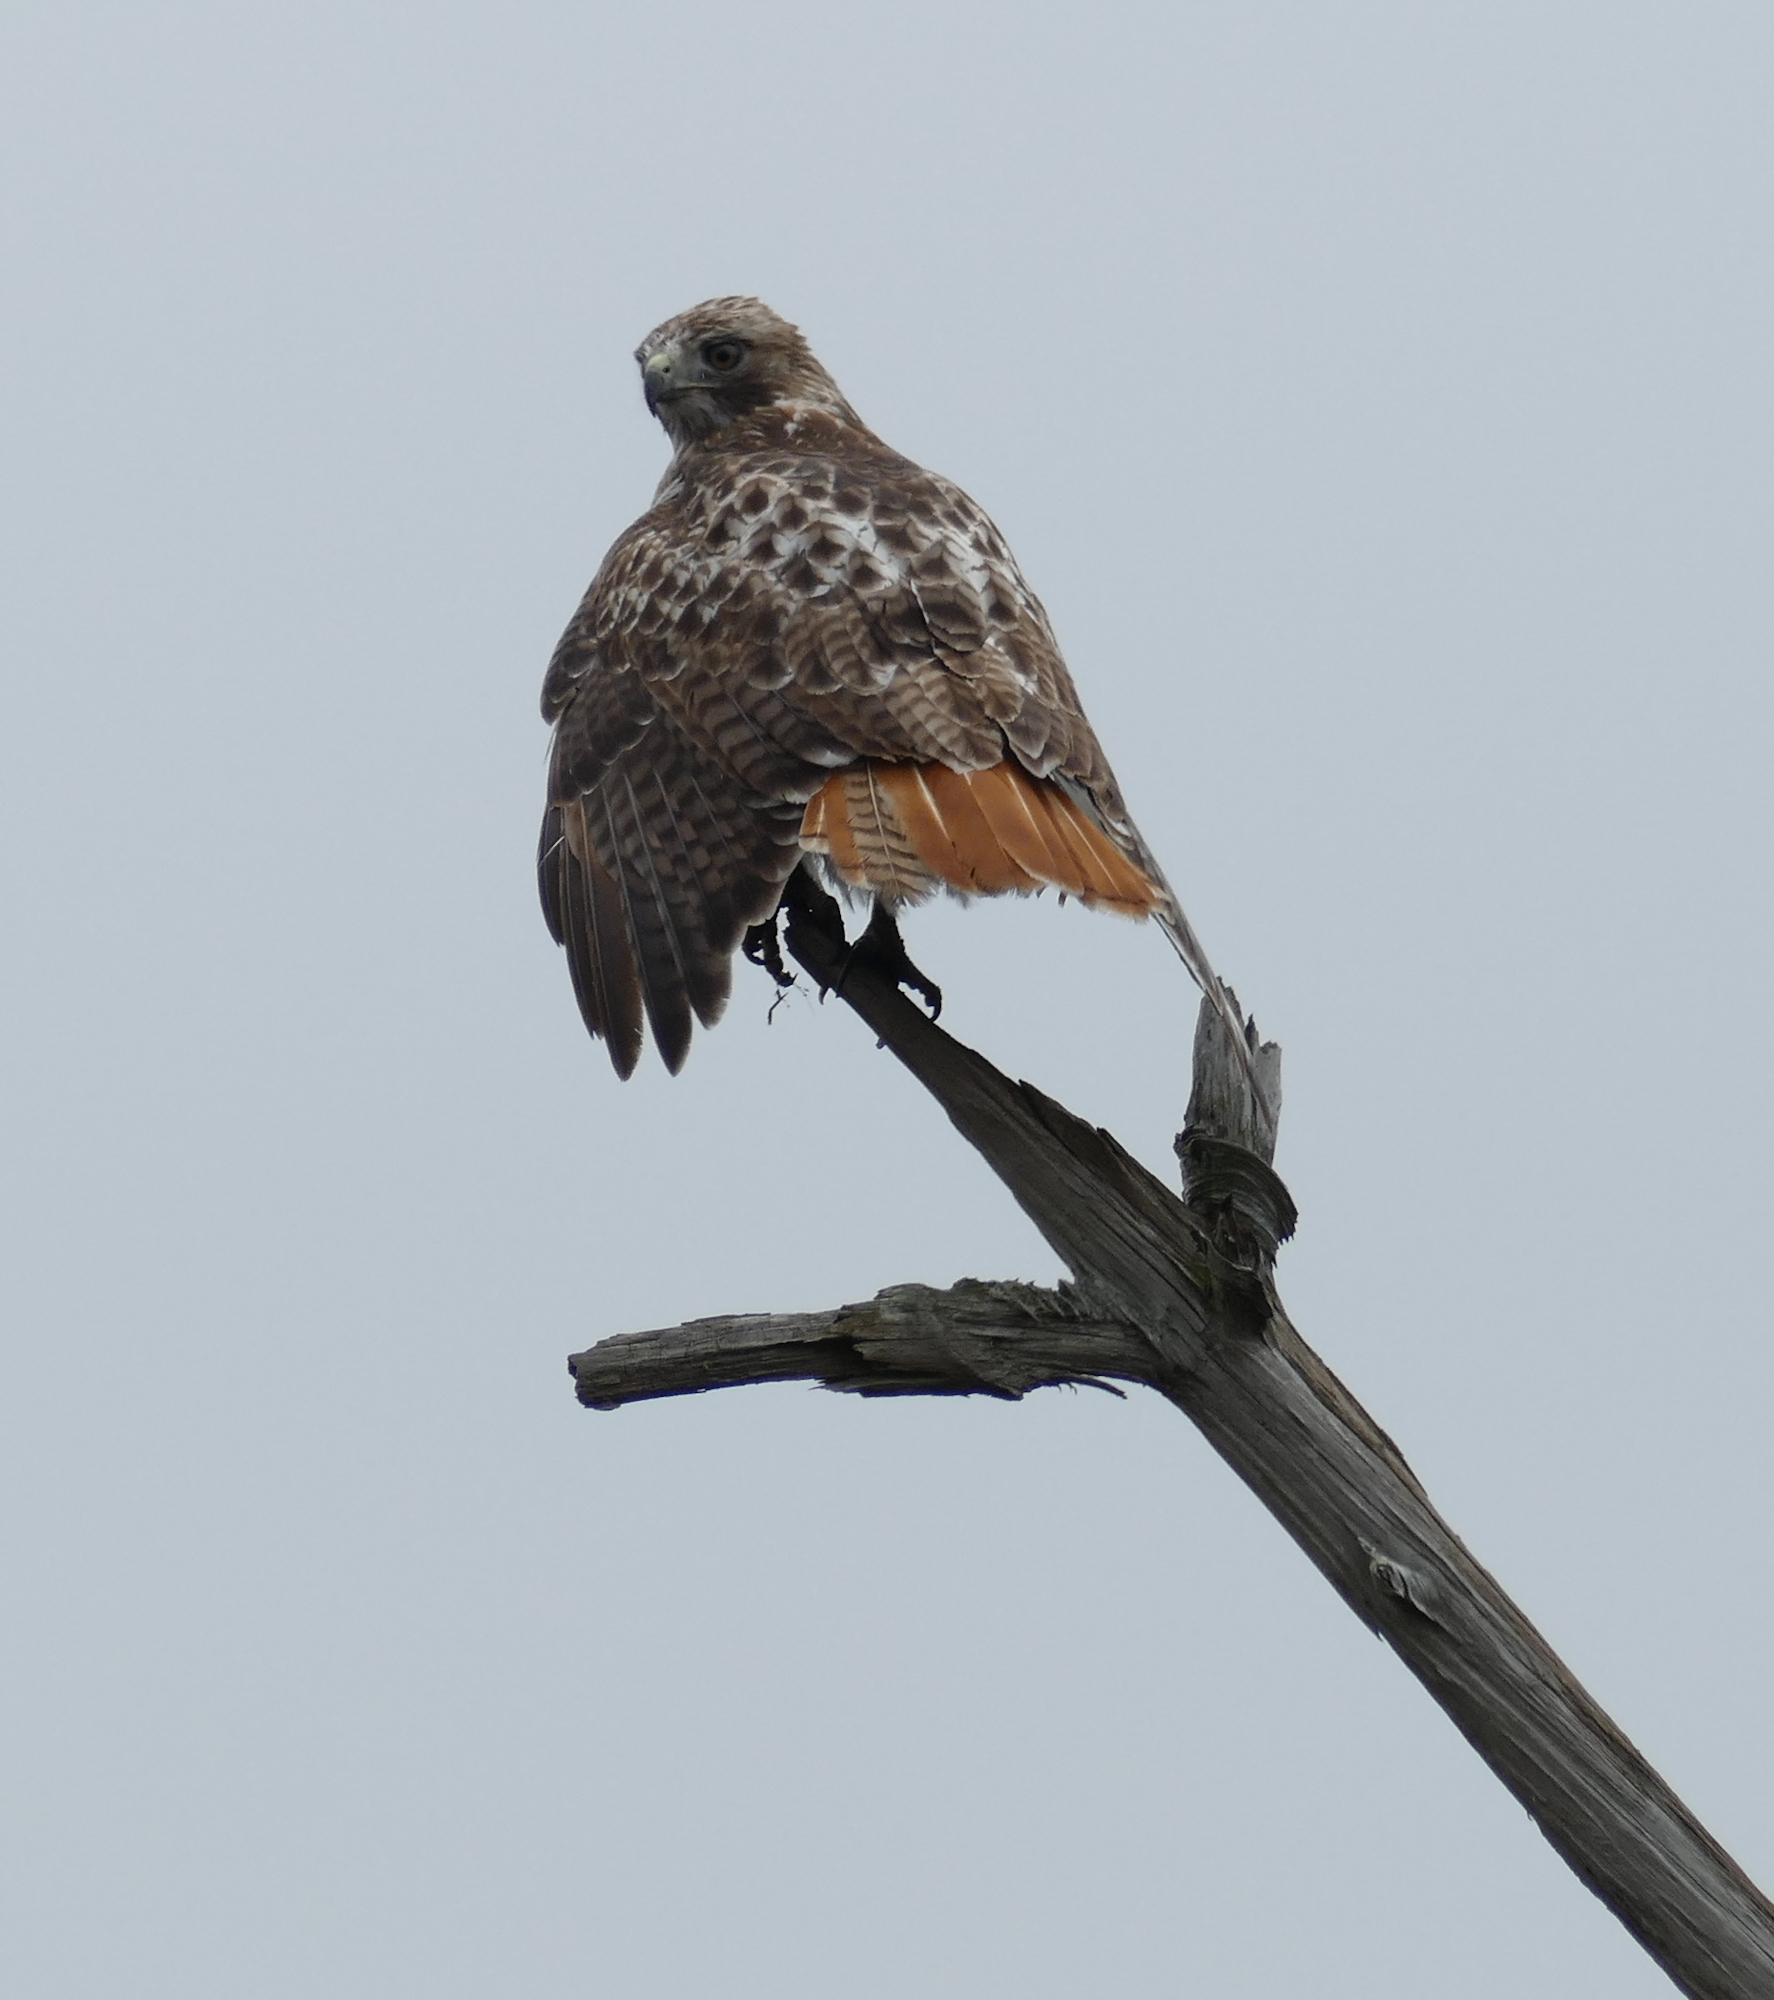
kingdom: Animalia
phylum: Chordata
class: Aves
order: Accipitriformes
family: Accipitridae
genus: Buteo
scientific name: Buteo jamaicensis
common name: Red-tailed hawk
